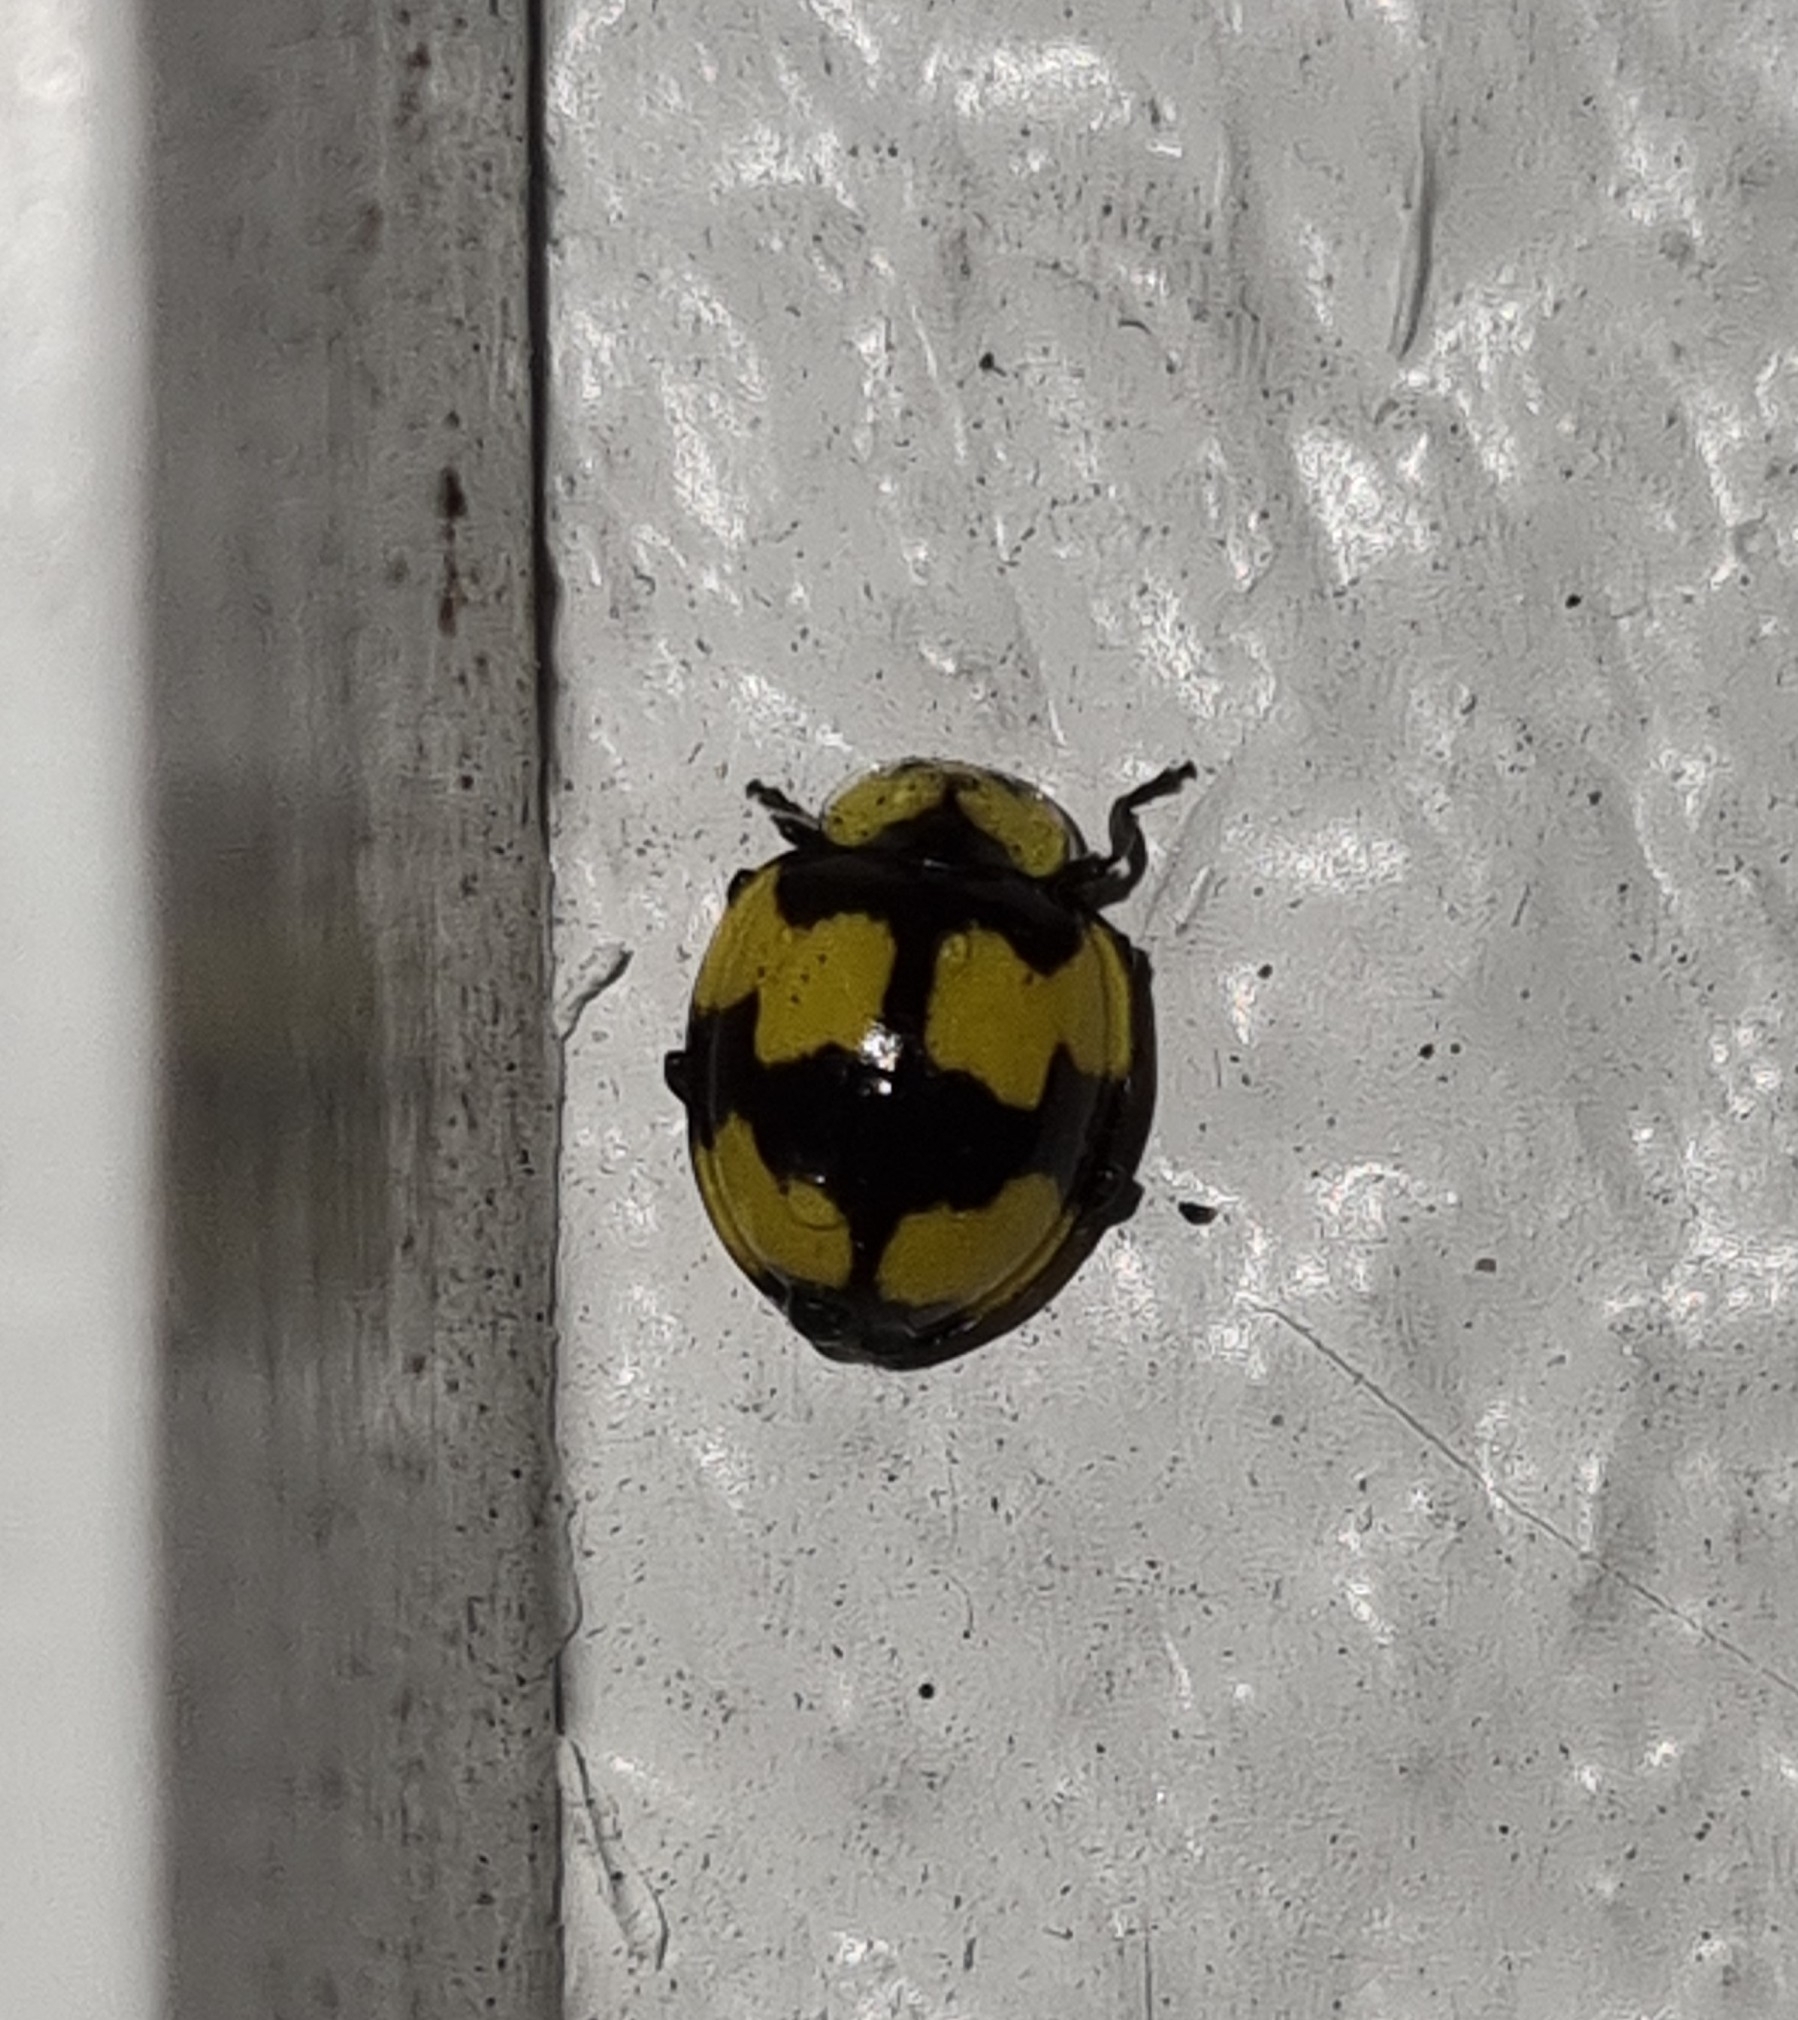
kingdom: Animalia
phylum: Arthropoda
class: Insecta
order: Coleoptera
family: Coccinellidae
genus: Illeis
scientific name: Illeis galbula
